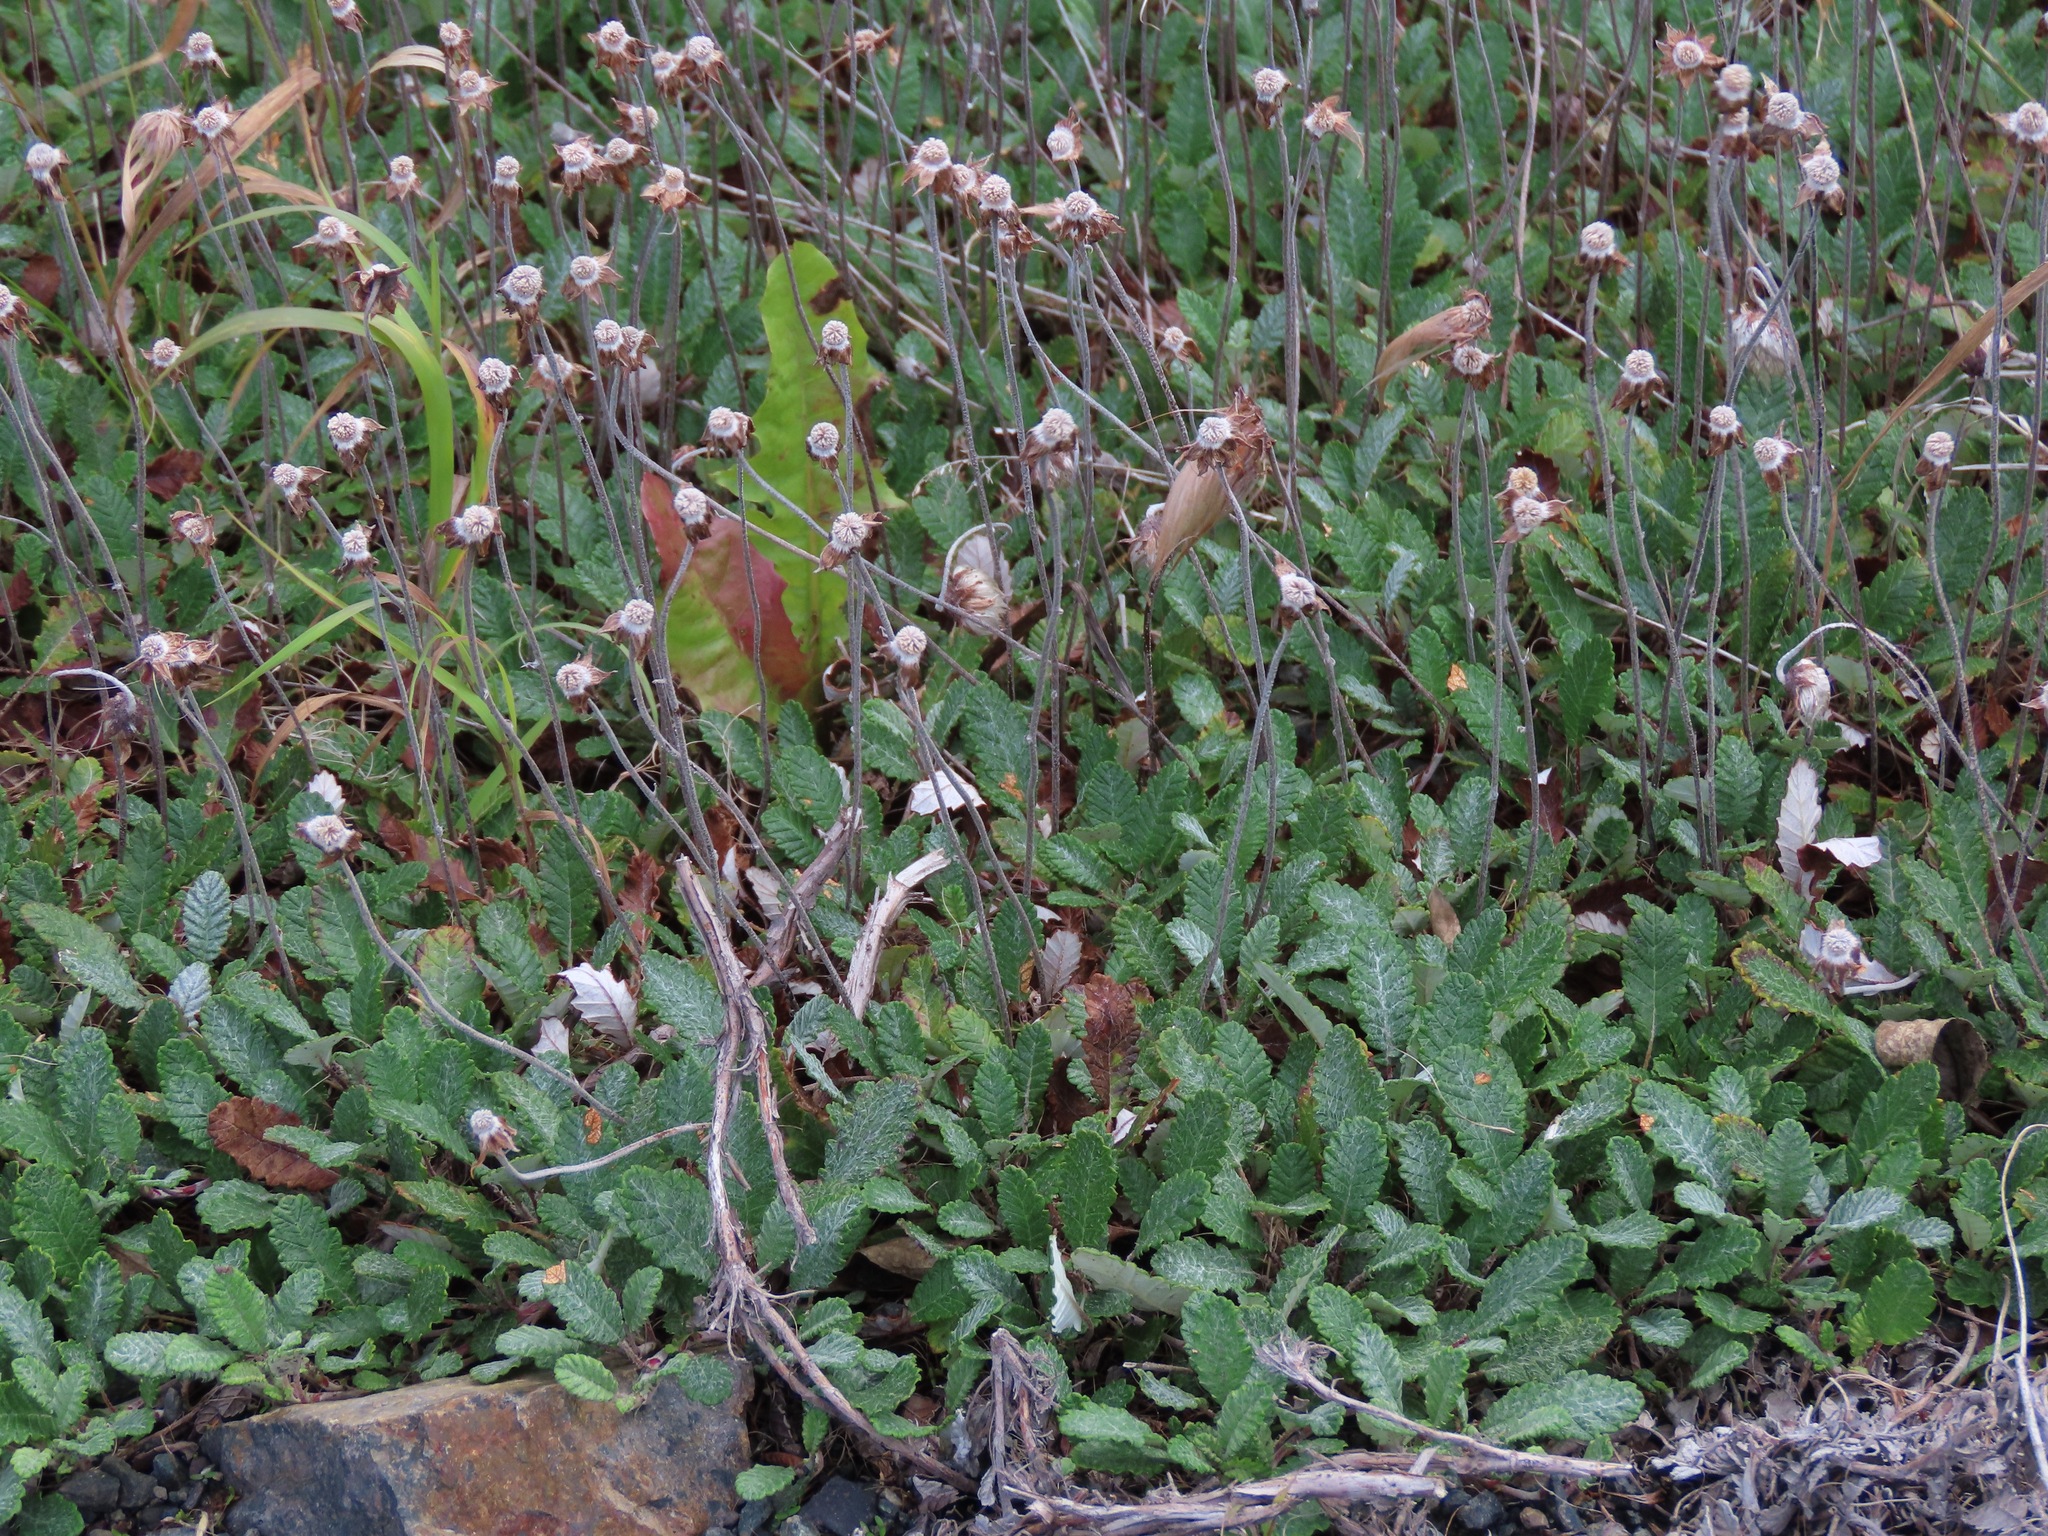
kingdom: Plantae
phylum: Tracheophyta
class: Magnoliopsida
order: Rosales
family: Rosaceae
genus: Dryas
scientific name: Dryas drummondii
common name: Drummond's dryad
